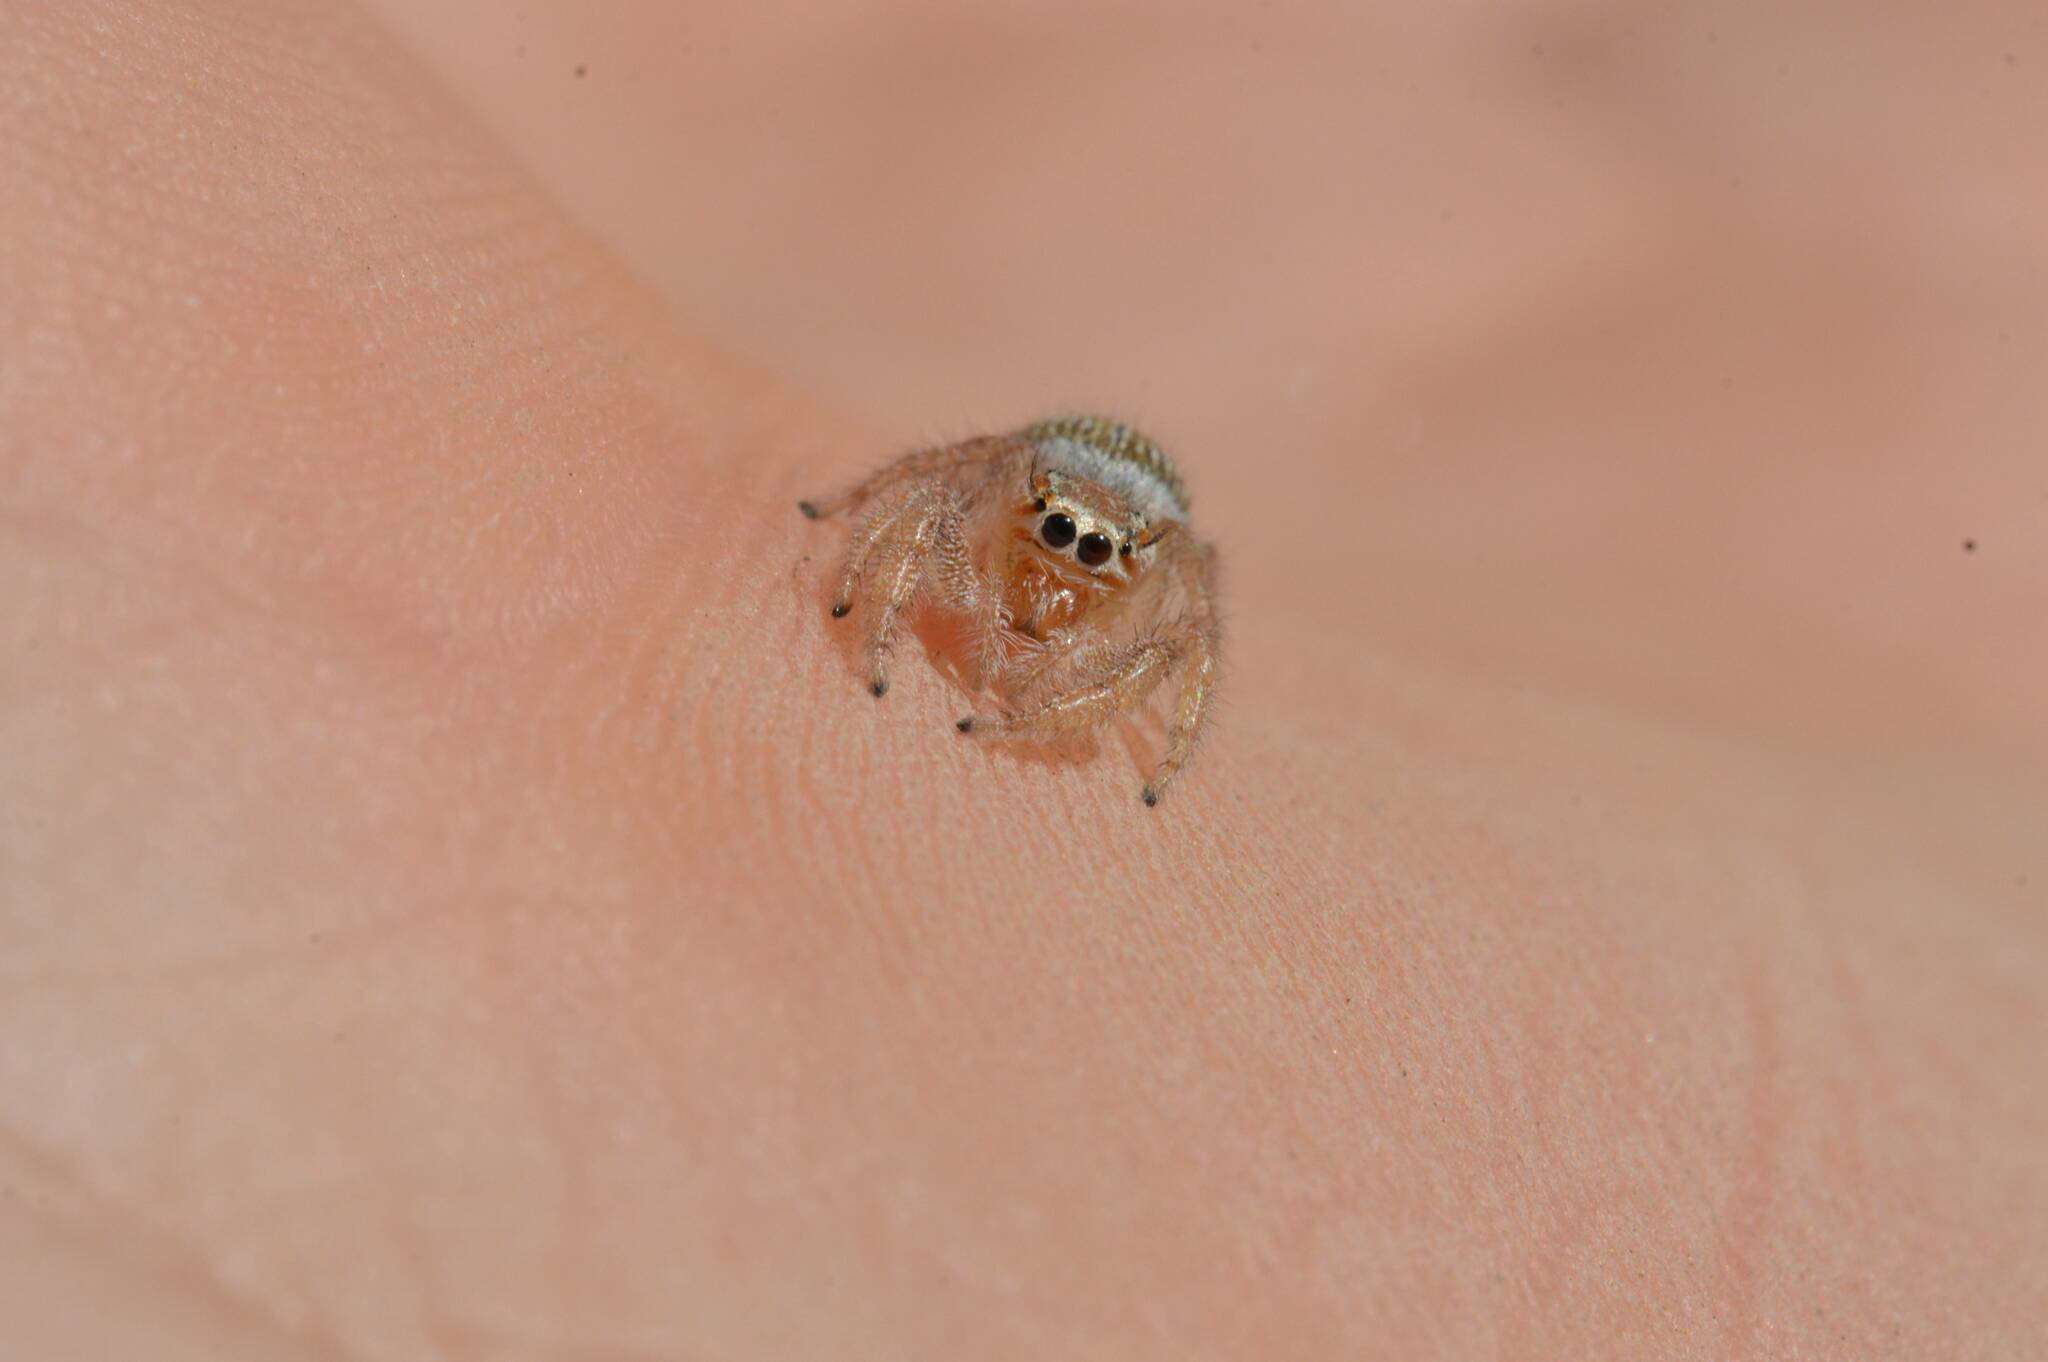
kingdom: Animalia
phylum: Arthropoda
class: Arachnida
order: Araneae
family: Salticidae
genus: Thyene
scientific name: Thyene imperialis
